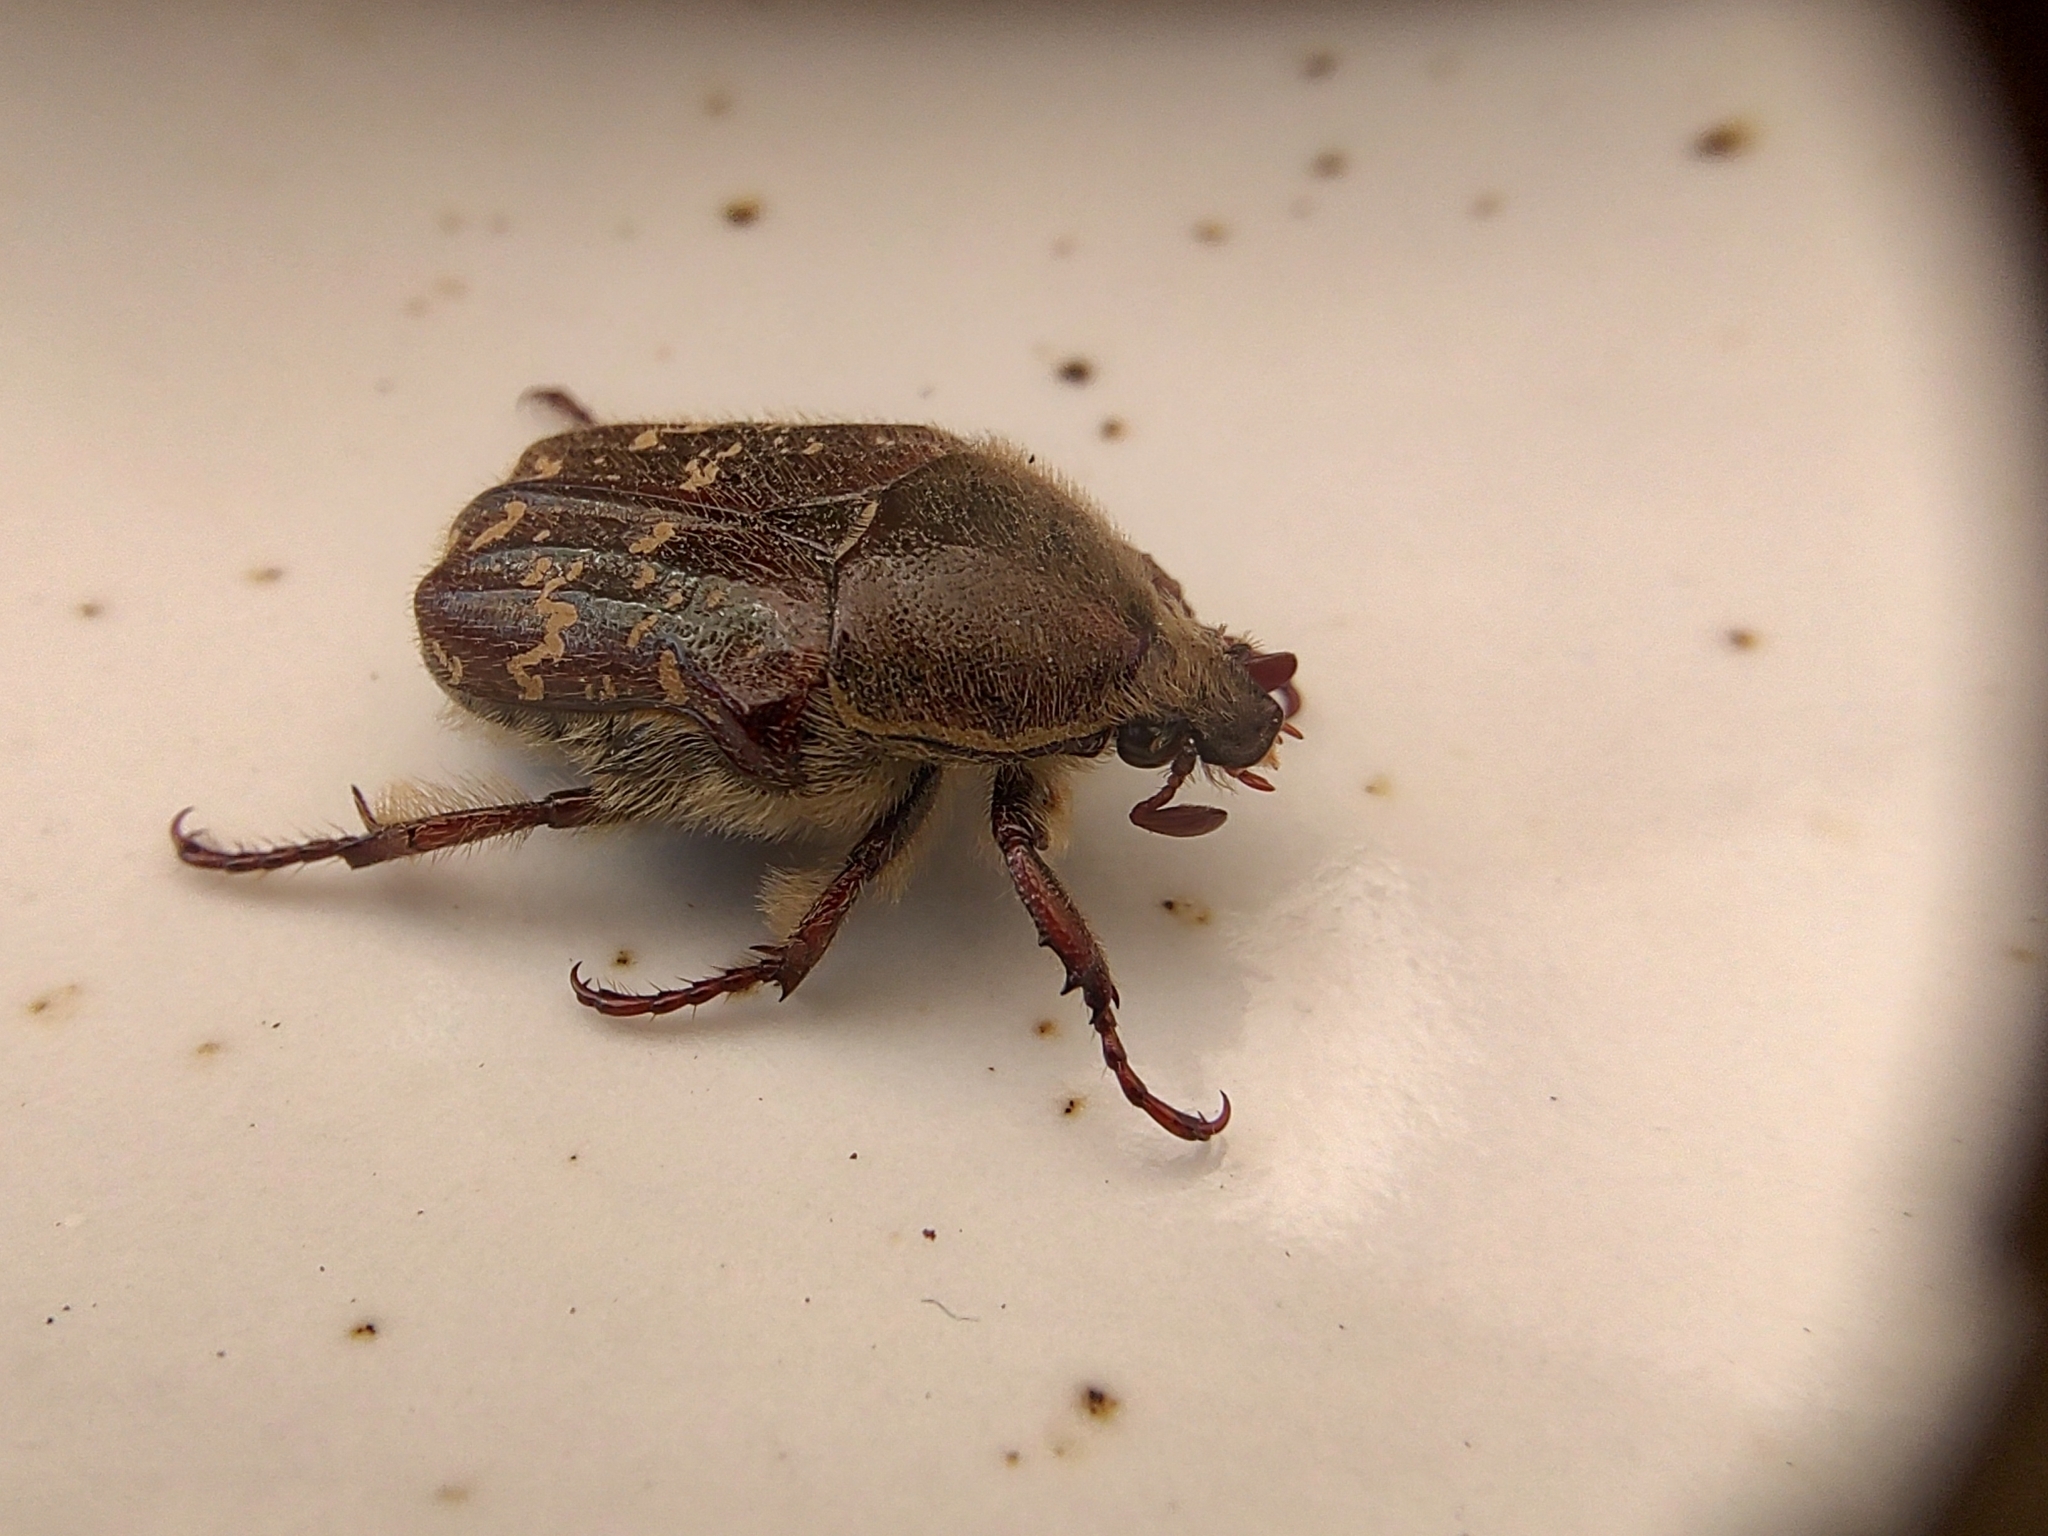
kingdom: Animalia
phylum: Arthropoda
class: Insecta
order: Coleoptera
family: Scarabaeidae
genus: Euphoria
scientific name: Euphoria leucographa
